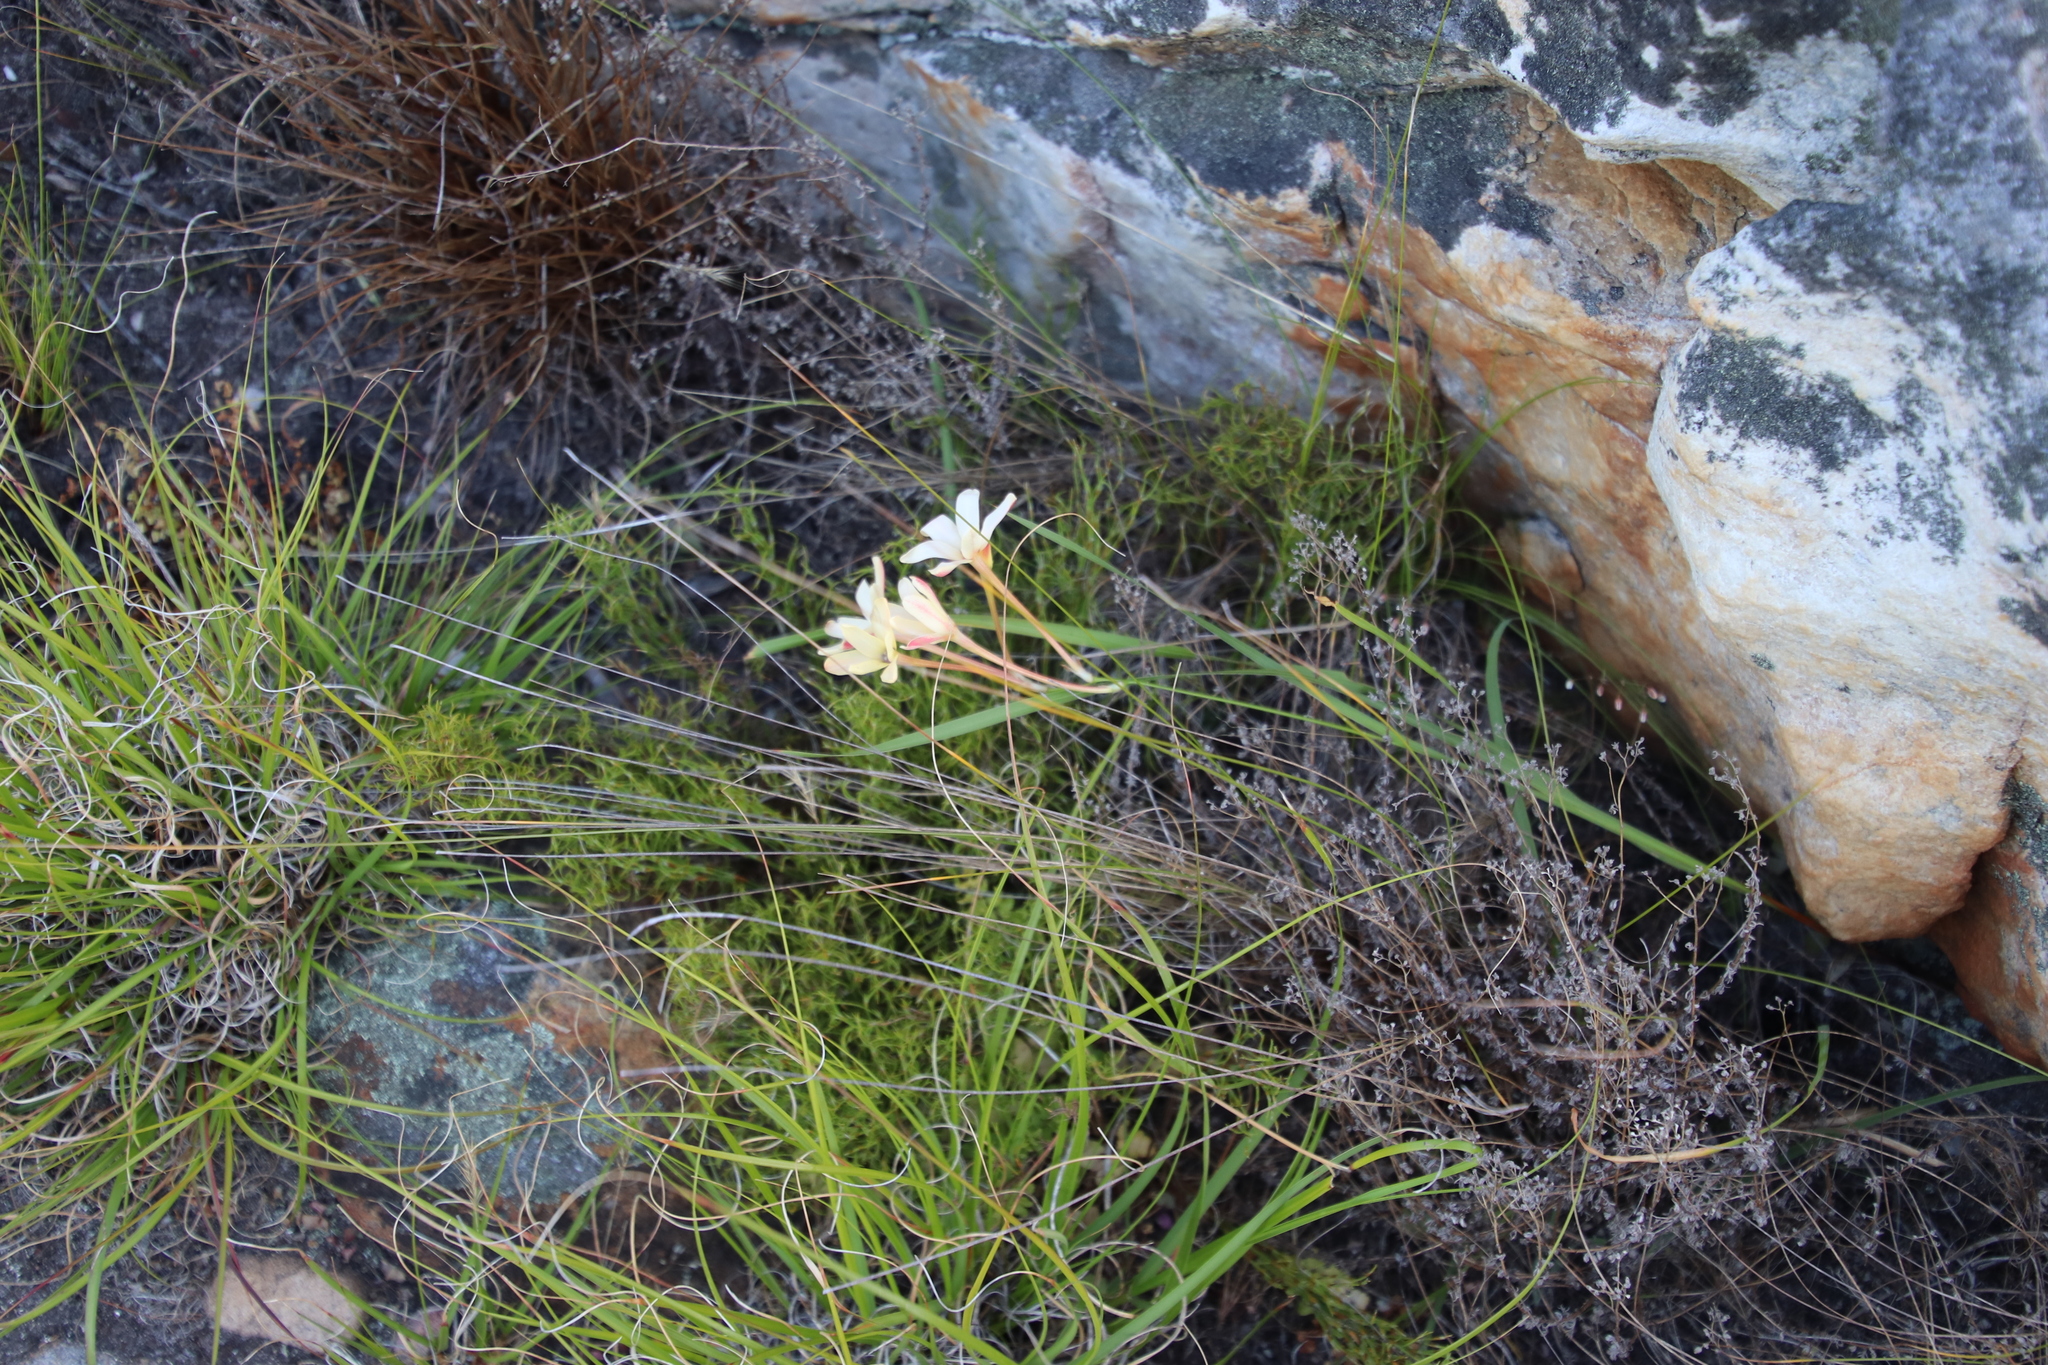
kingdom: Plantae
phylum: Tracheophyta
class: Liliopsida
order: Asparagales
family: Iridaceae
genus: Ixia
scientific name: Ixia paniculata
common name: Tubular corn-lily
